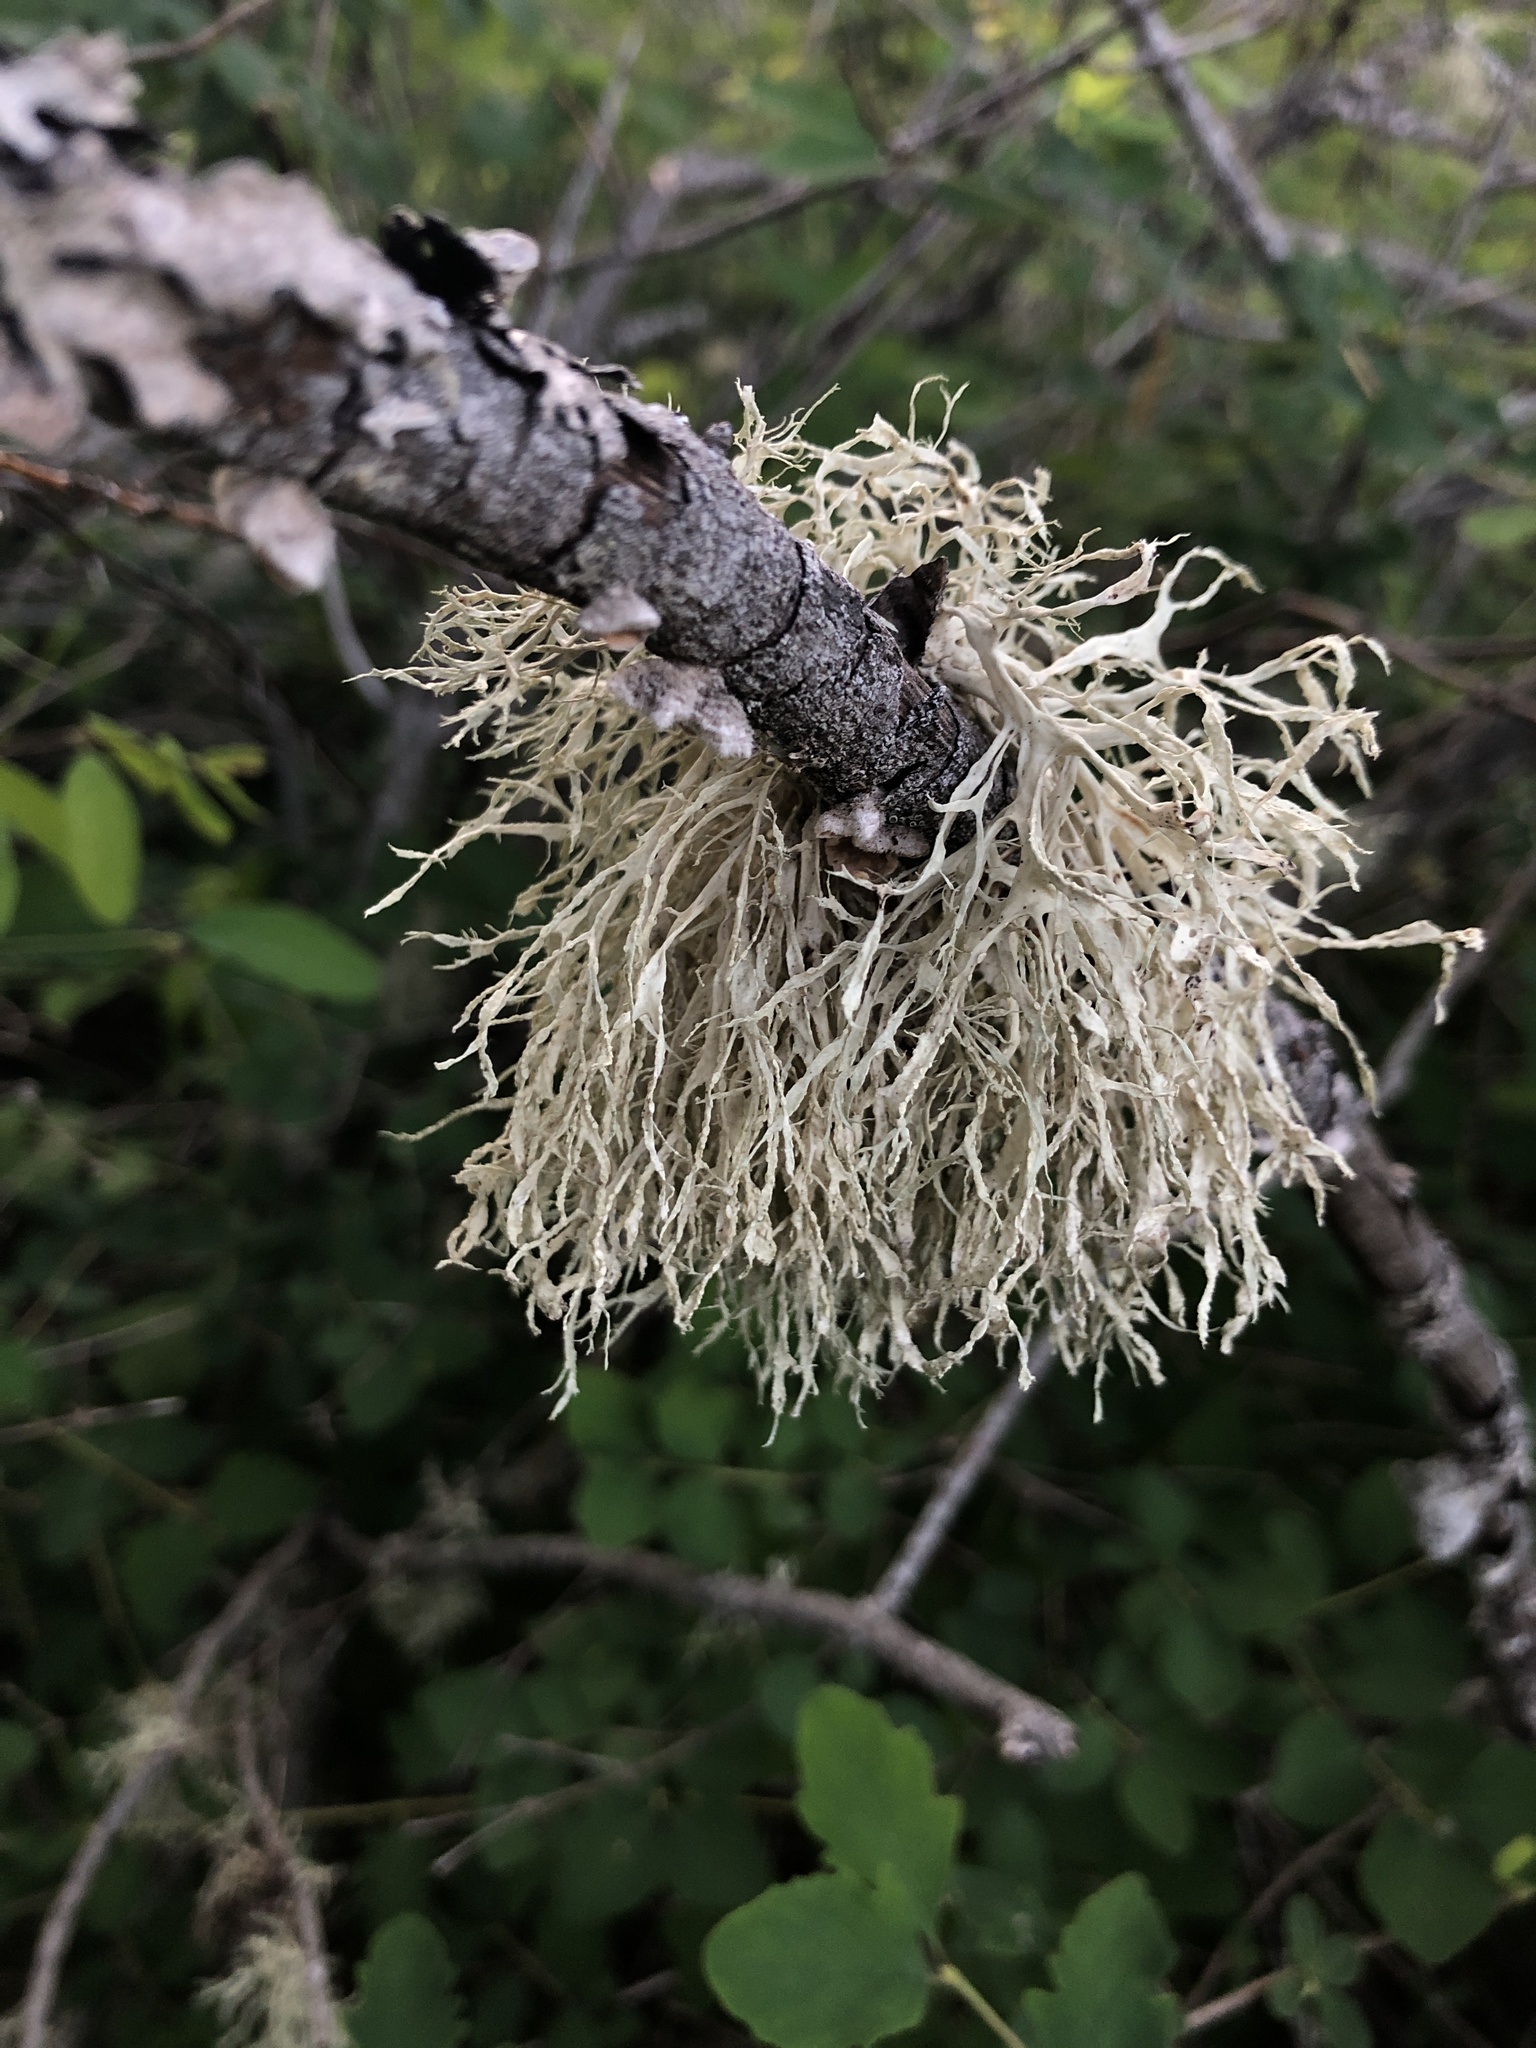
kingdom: Fungi
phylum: Ascomycota
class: Lecanoromycetes
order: Lecanorales
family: Ramalinaceae
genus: Ramalina
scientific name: Ramalina farinacea
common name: Farinose cartilage lichen
